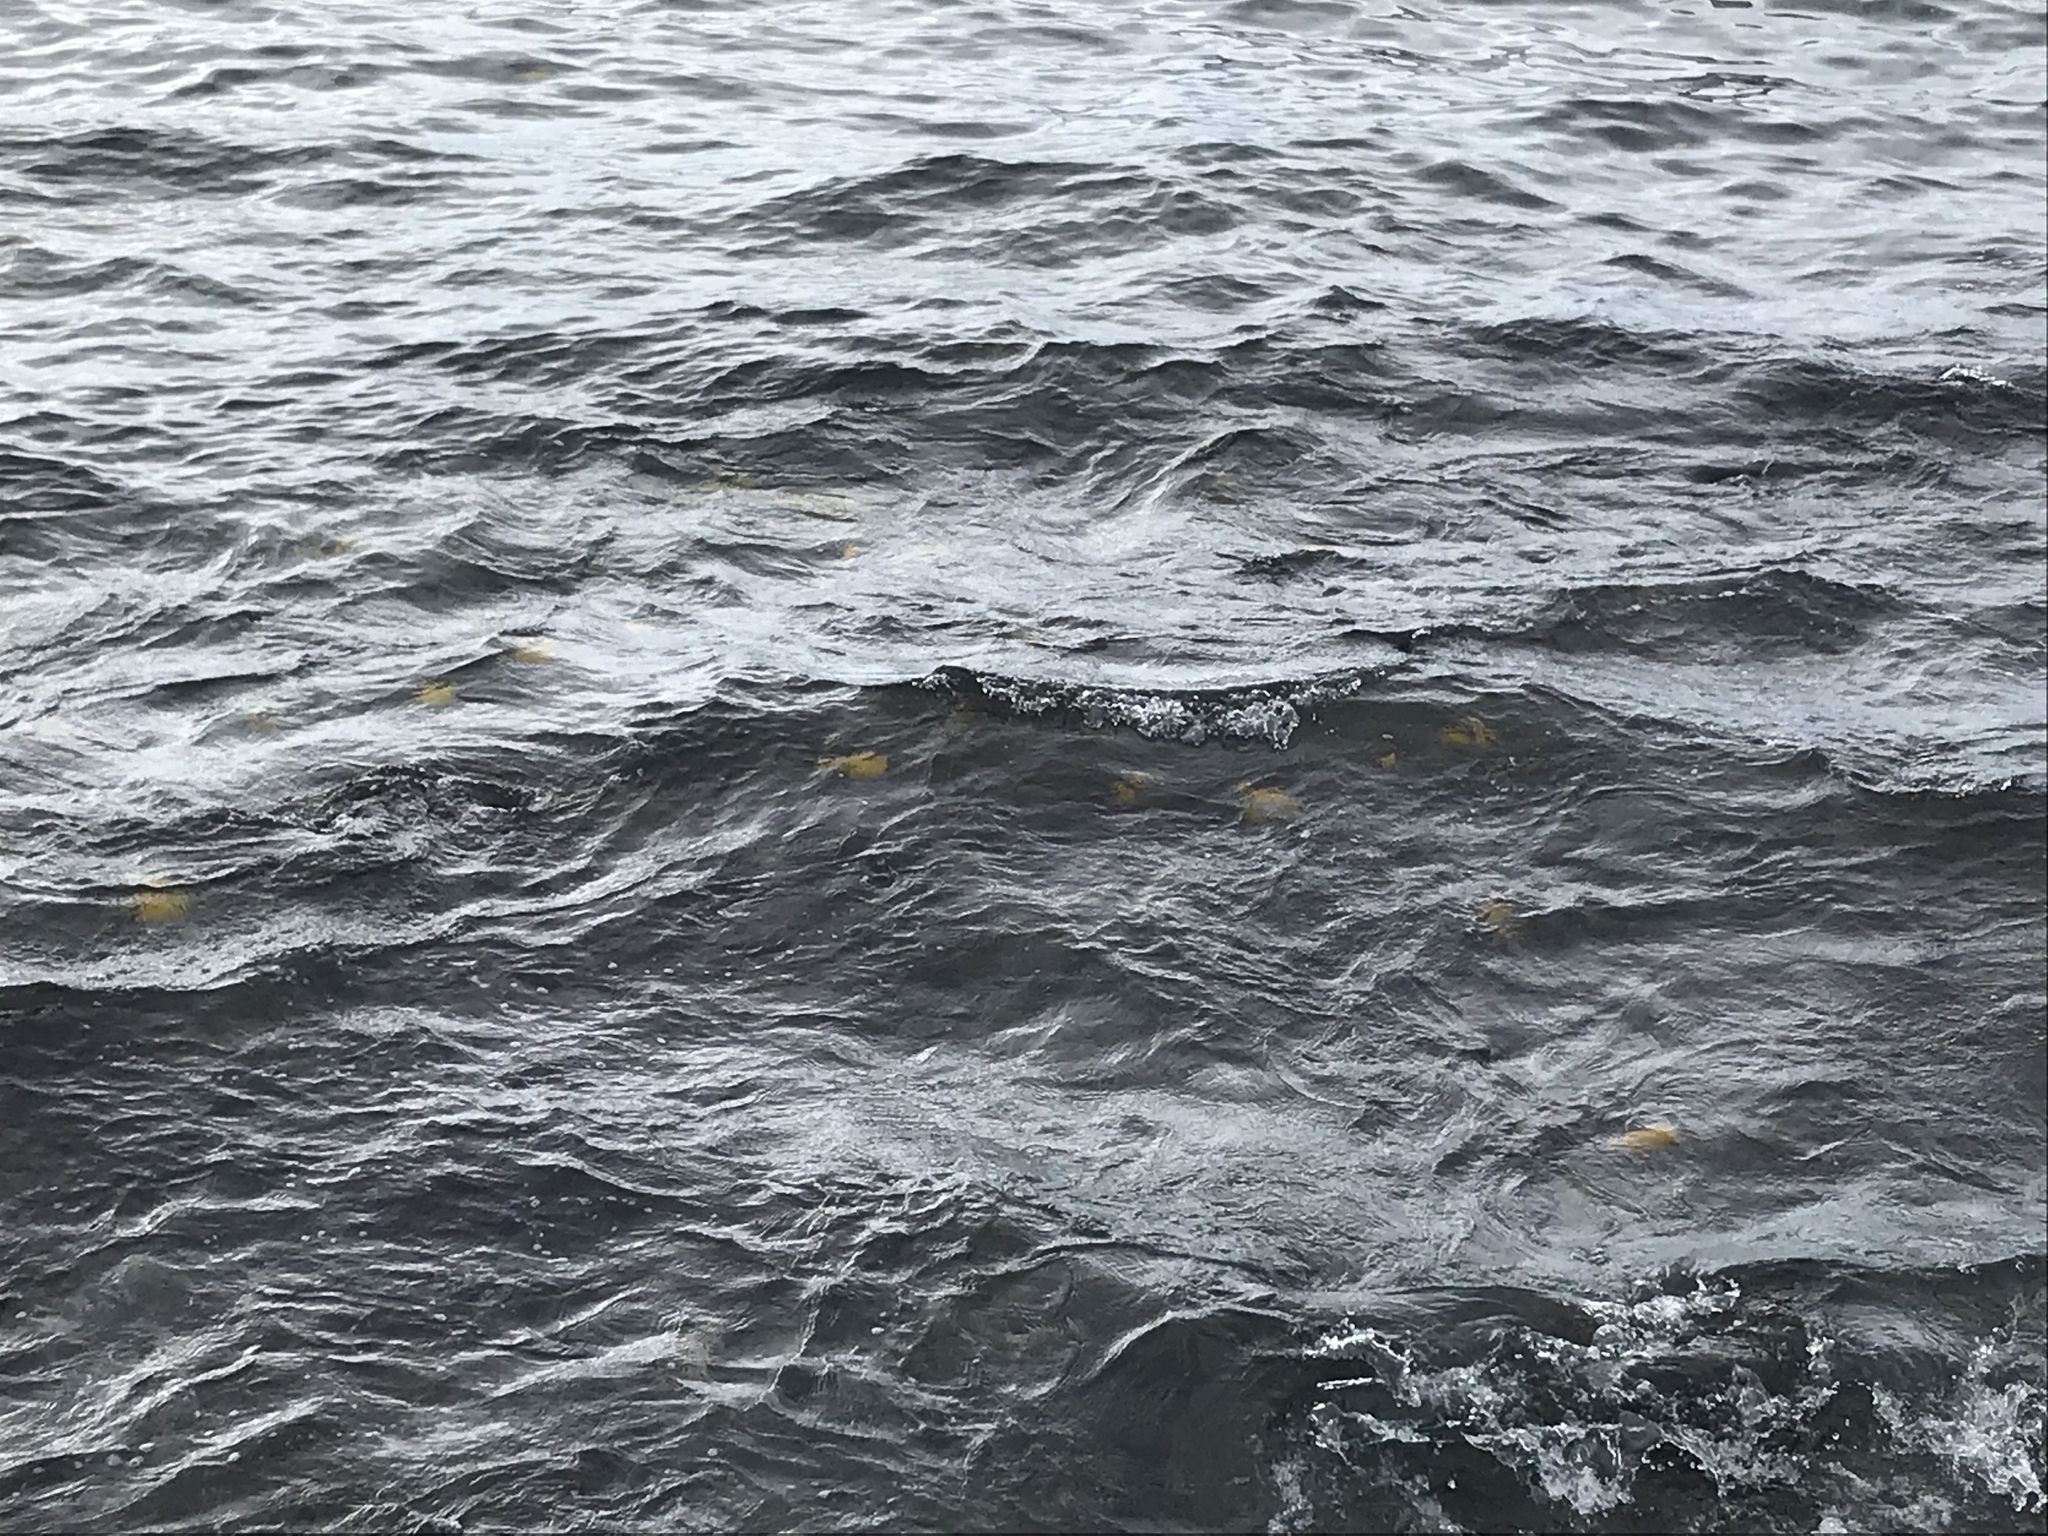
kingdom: Animalia
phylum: Chordata
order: Perciformes
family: Acanthuridae
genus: Zebrasoma
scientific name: Zebrasoma flavescens
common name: Yellow tang
